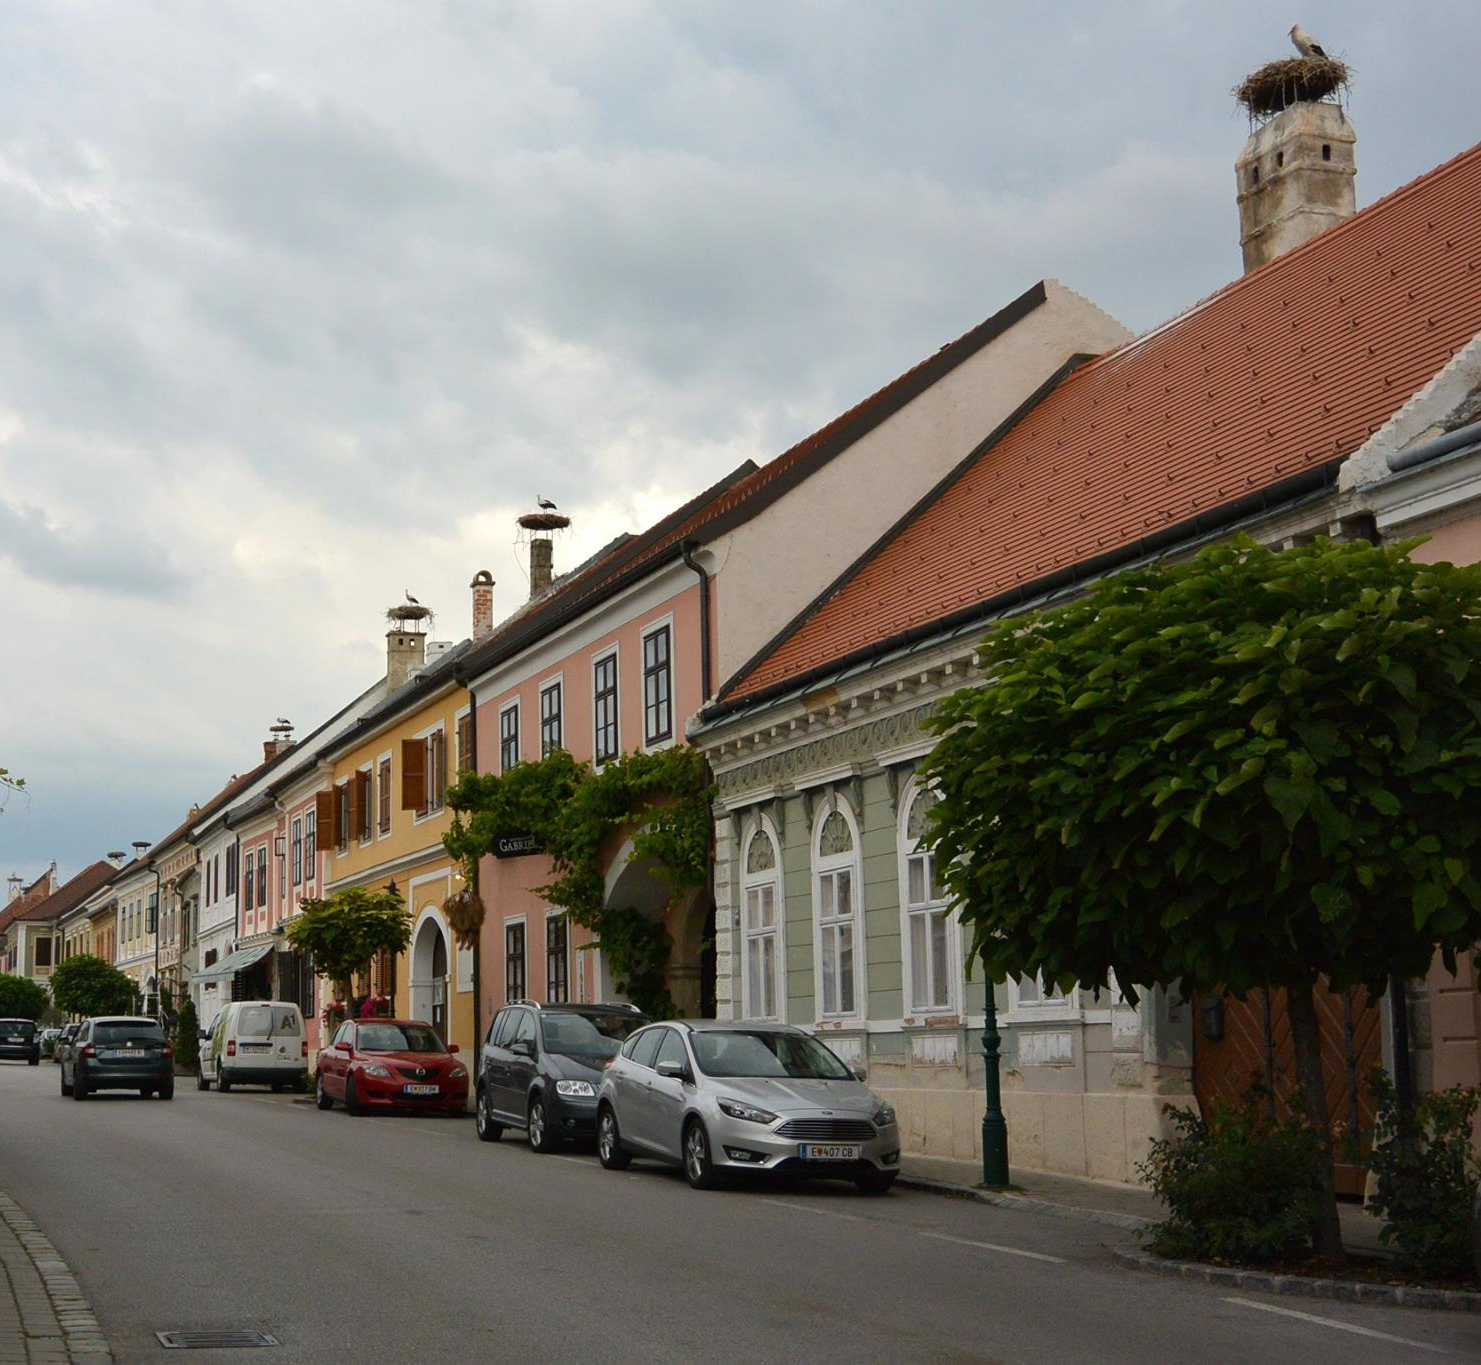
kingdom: Animalia
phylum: Chordata
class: Aves
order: Ciconiiformes
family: Ciconiidae
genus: Ciconia
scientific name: Ciconia ciconia
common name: White stork
